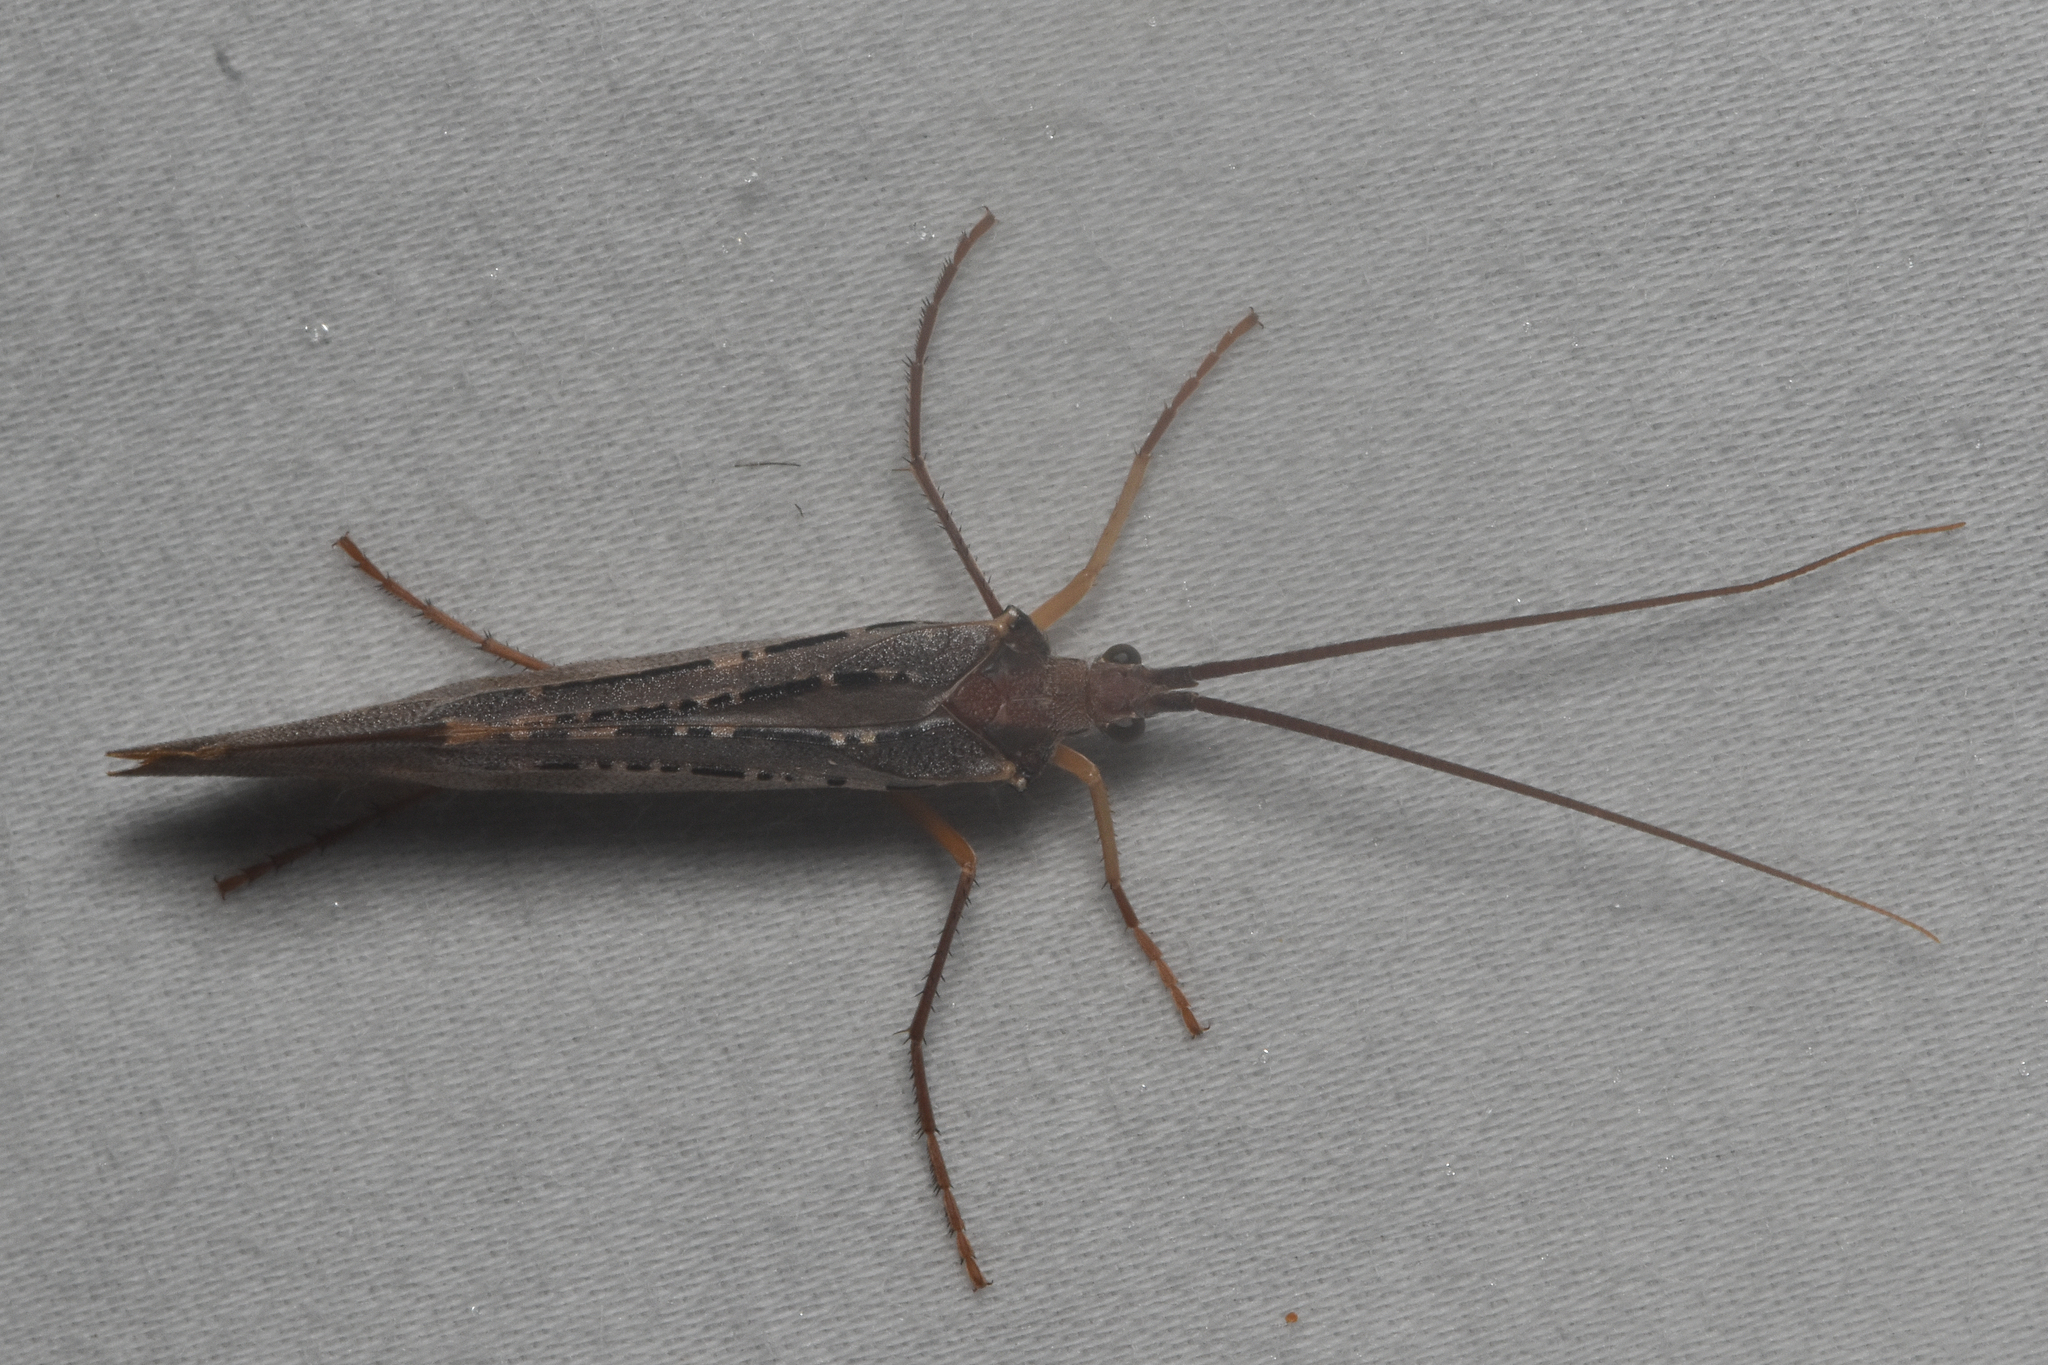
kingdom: Animalia
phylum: Arthropoda
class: Insecta
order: Trichoptera
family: Limnephilidae
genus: Nemotaulius
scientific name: Nemotaulius hostilis
